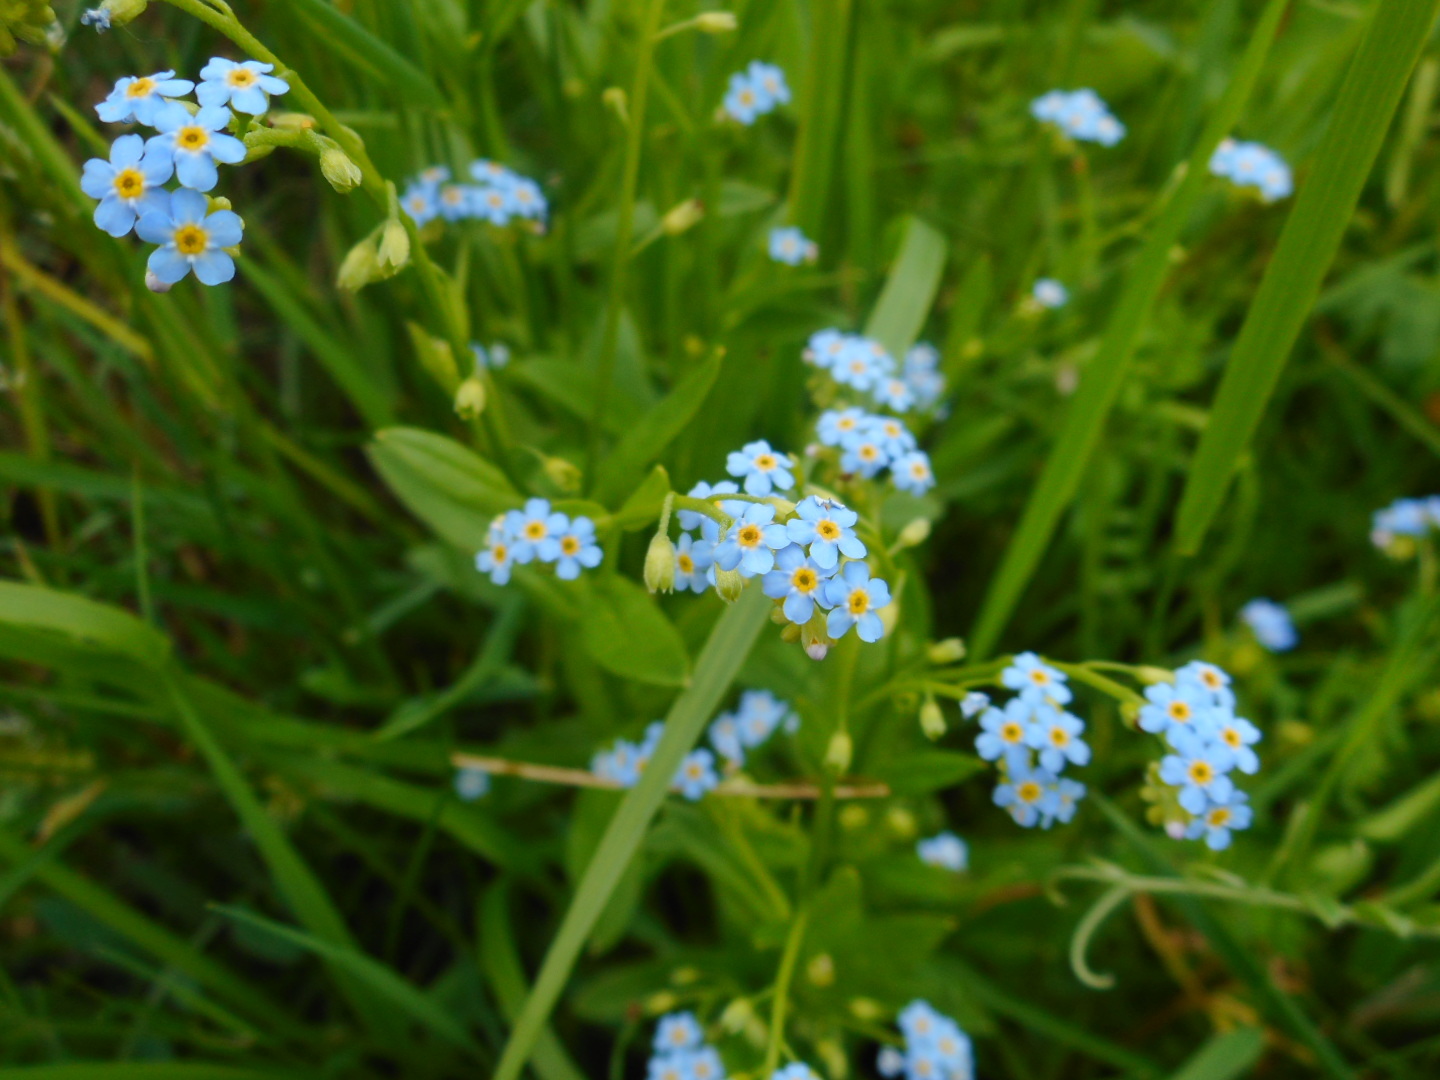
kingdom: Plantae
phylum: Tracheophyta
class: Magnoliopsida
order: Boraginales
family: Boraginaceae
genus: Myosotis
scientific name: Myosotis scorpioides
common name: Water forget-me-not
